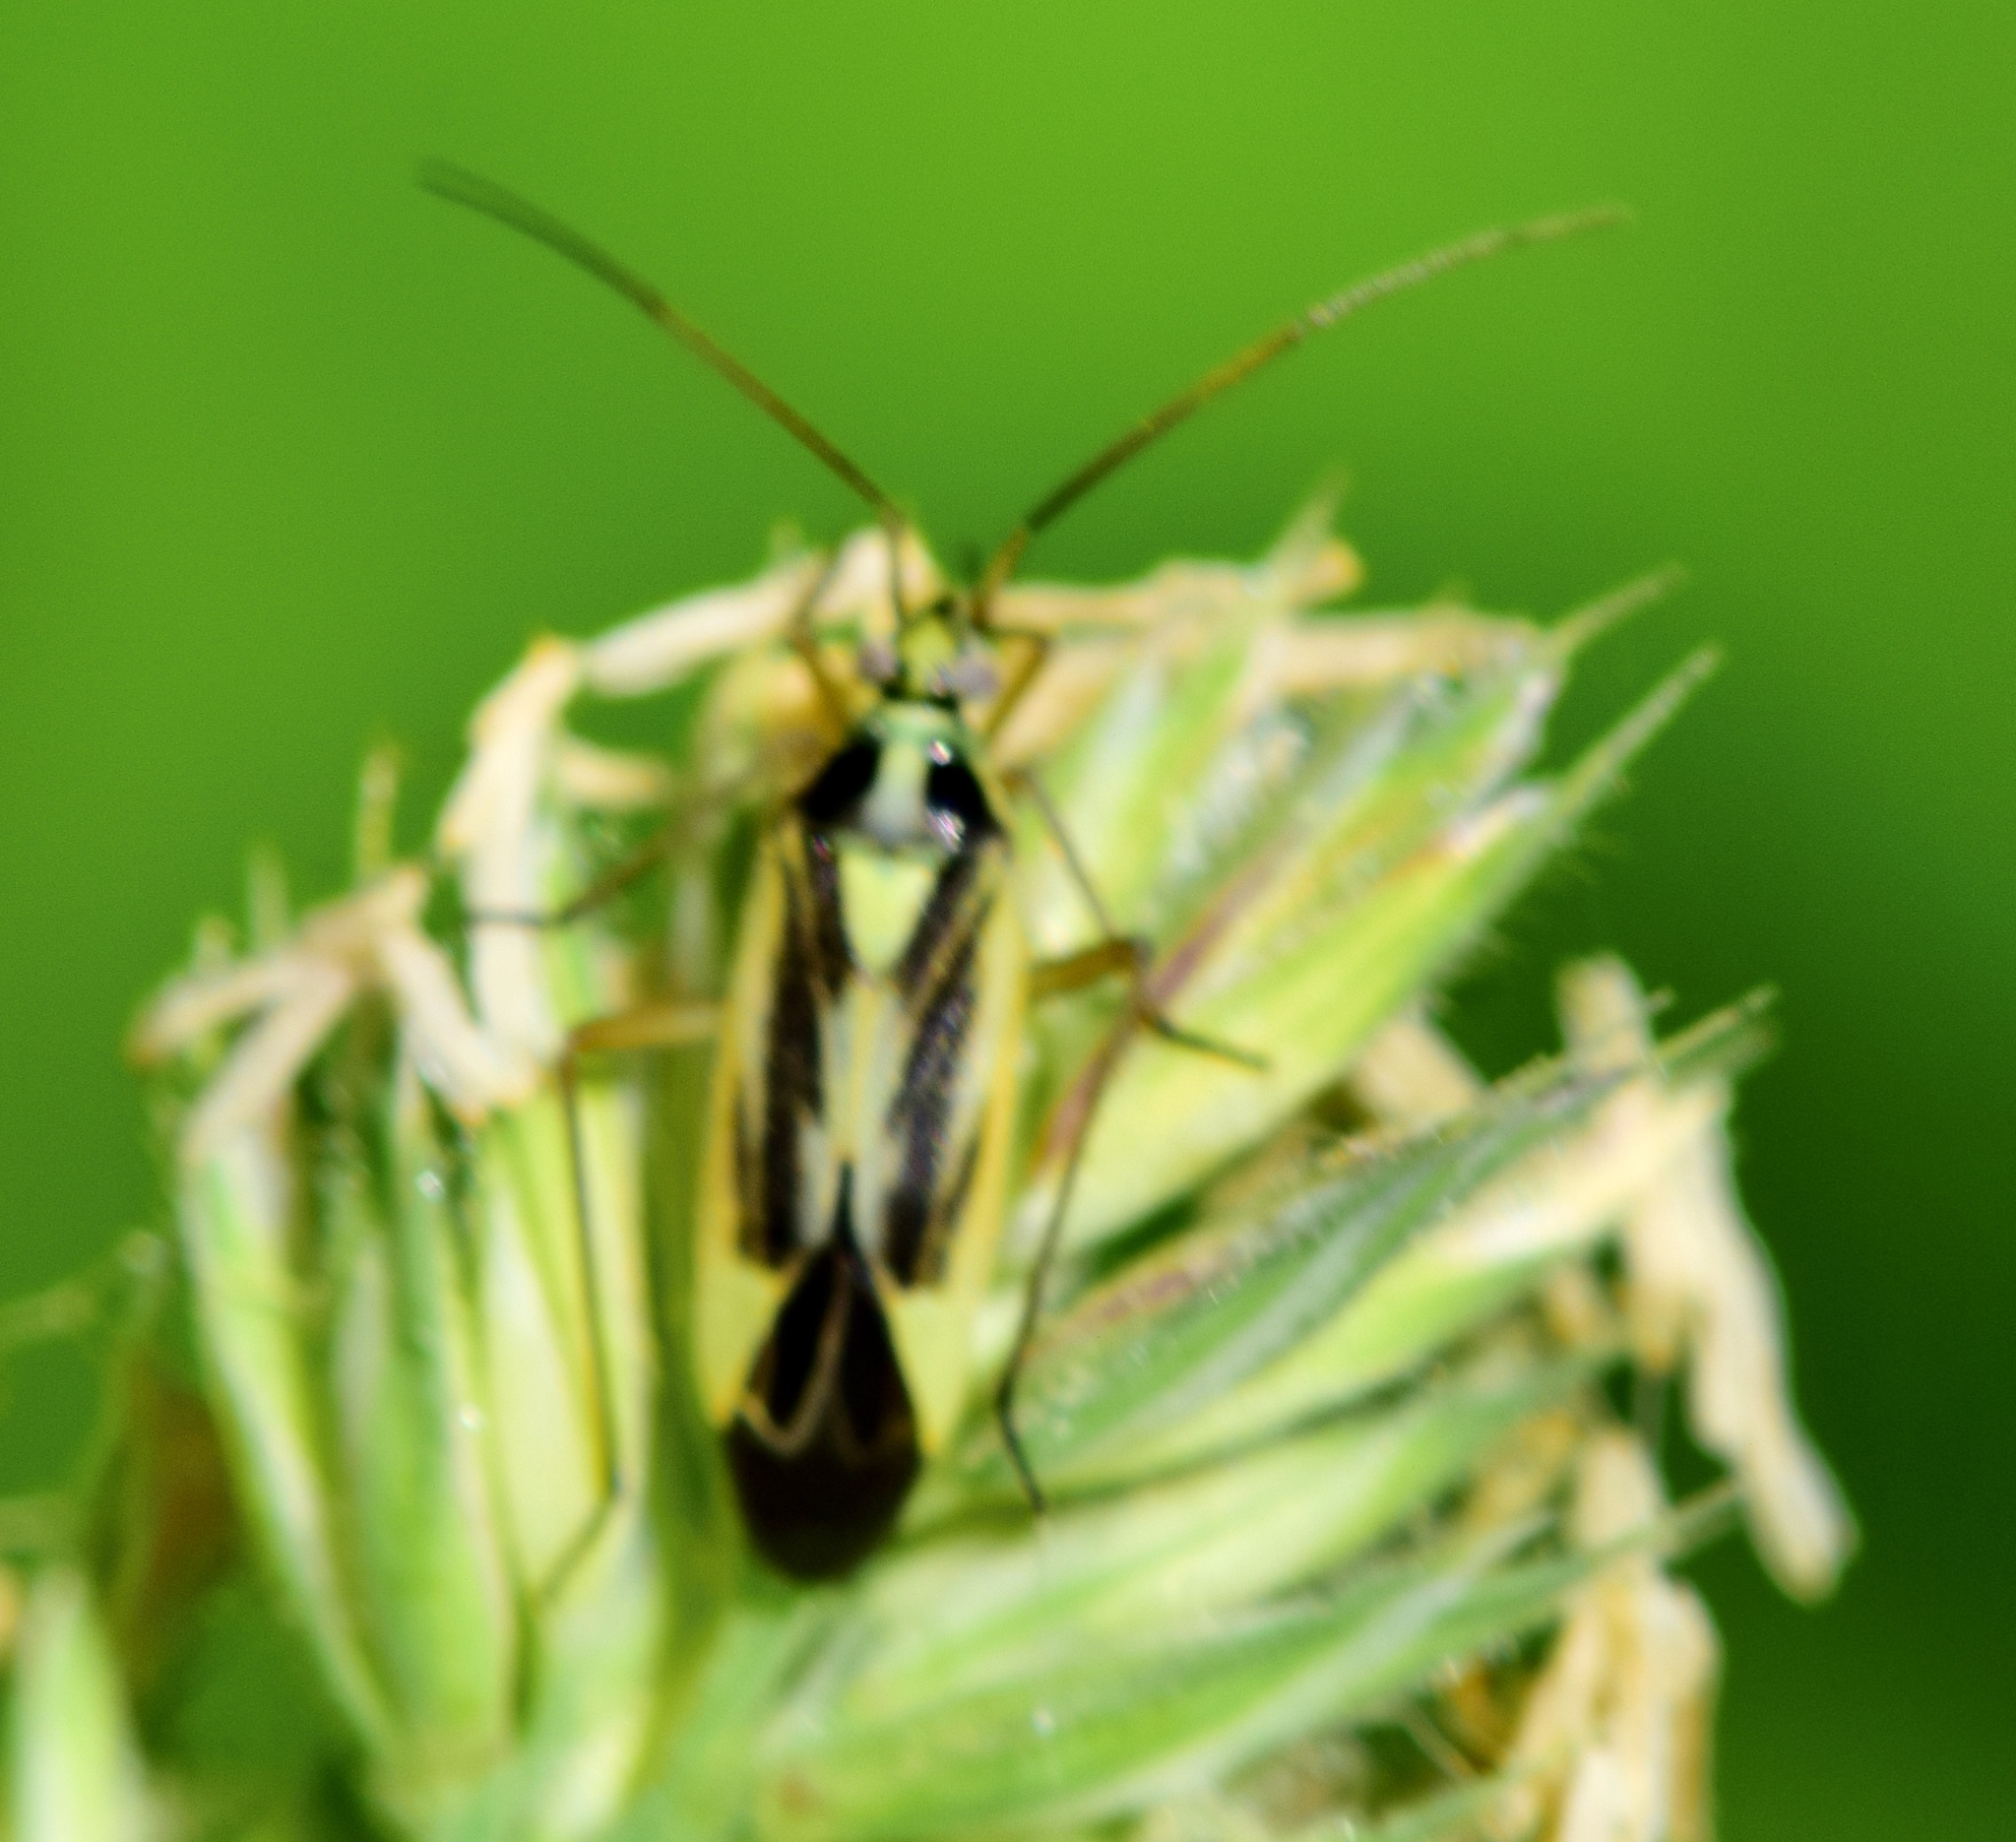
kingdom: Animalia
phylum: Arthropoda
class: Insecta
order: Hemiptera
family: Miridae
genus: Stenotus
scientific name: Stenotus binotatus
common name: Plant bug
